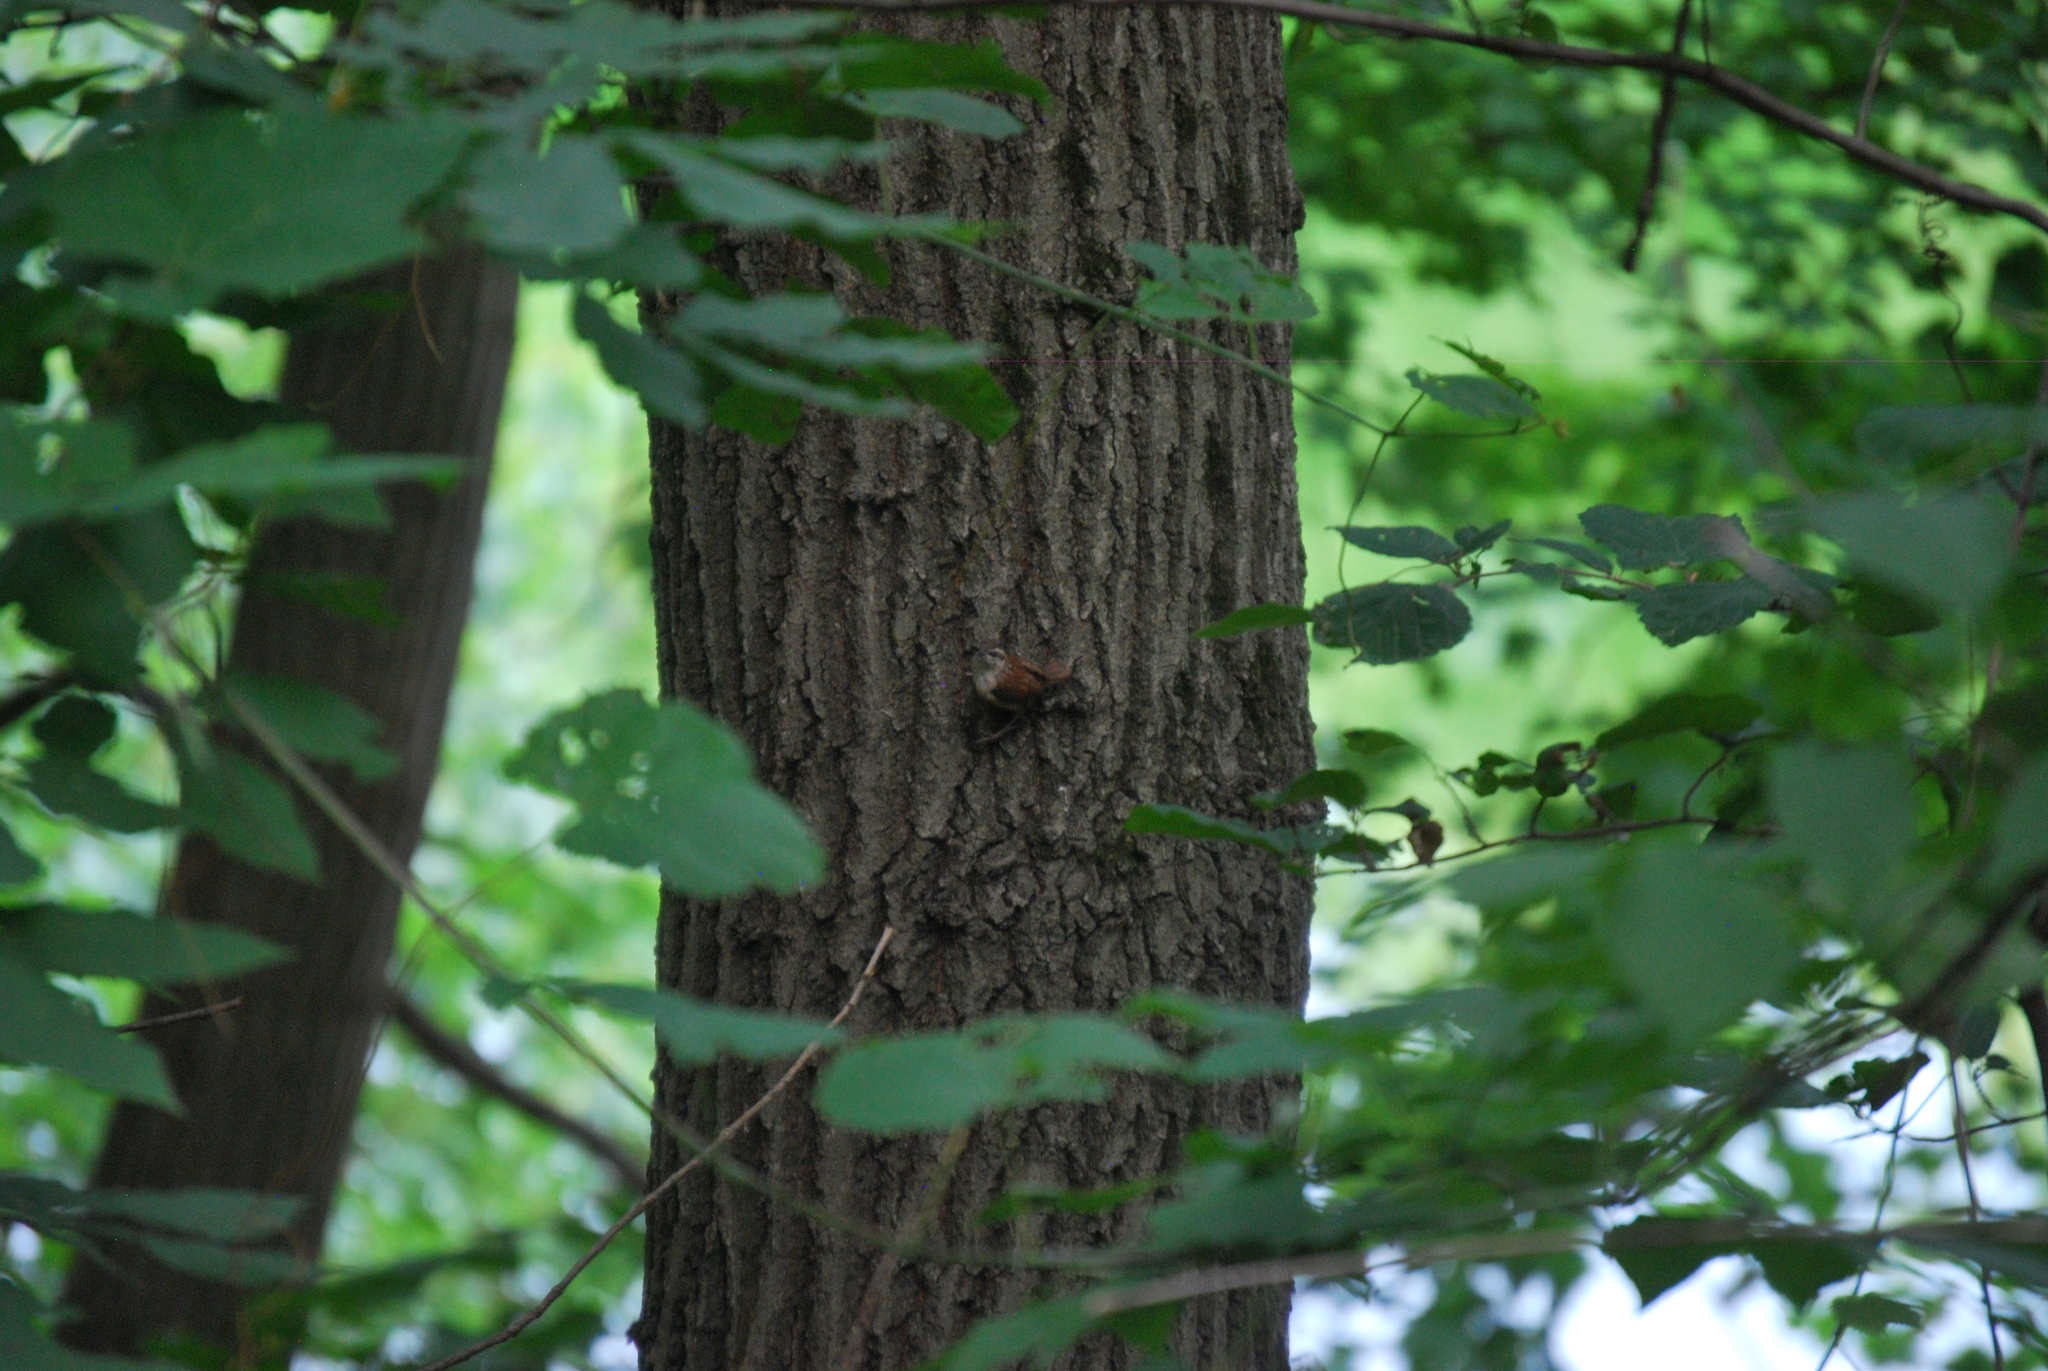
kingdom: Animalia
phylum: Chordata
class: Aves
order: Passeriformes
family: Troglodytidae
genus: Thryothorus
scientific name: Thryothorus ludovicianus
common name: Carolina wren
